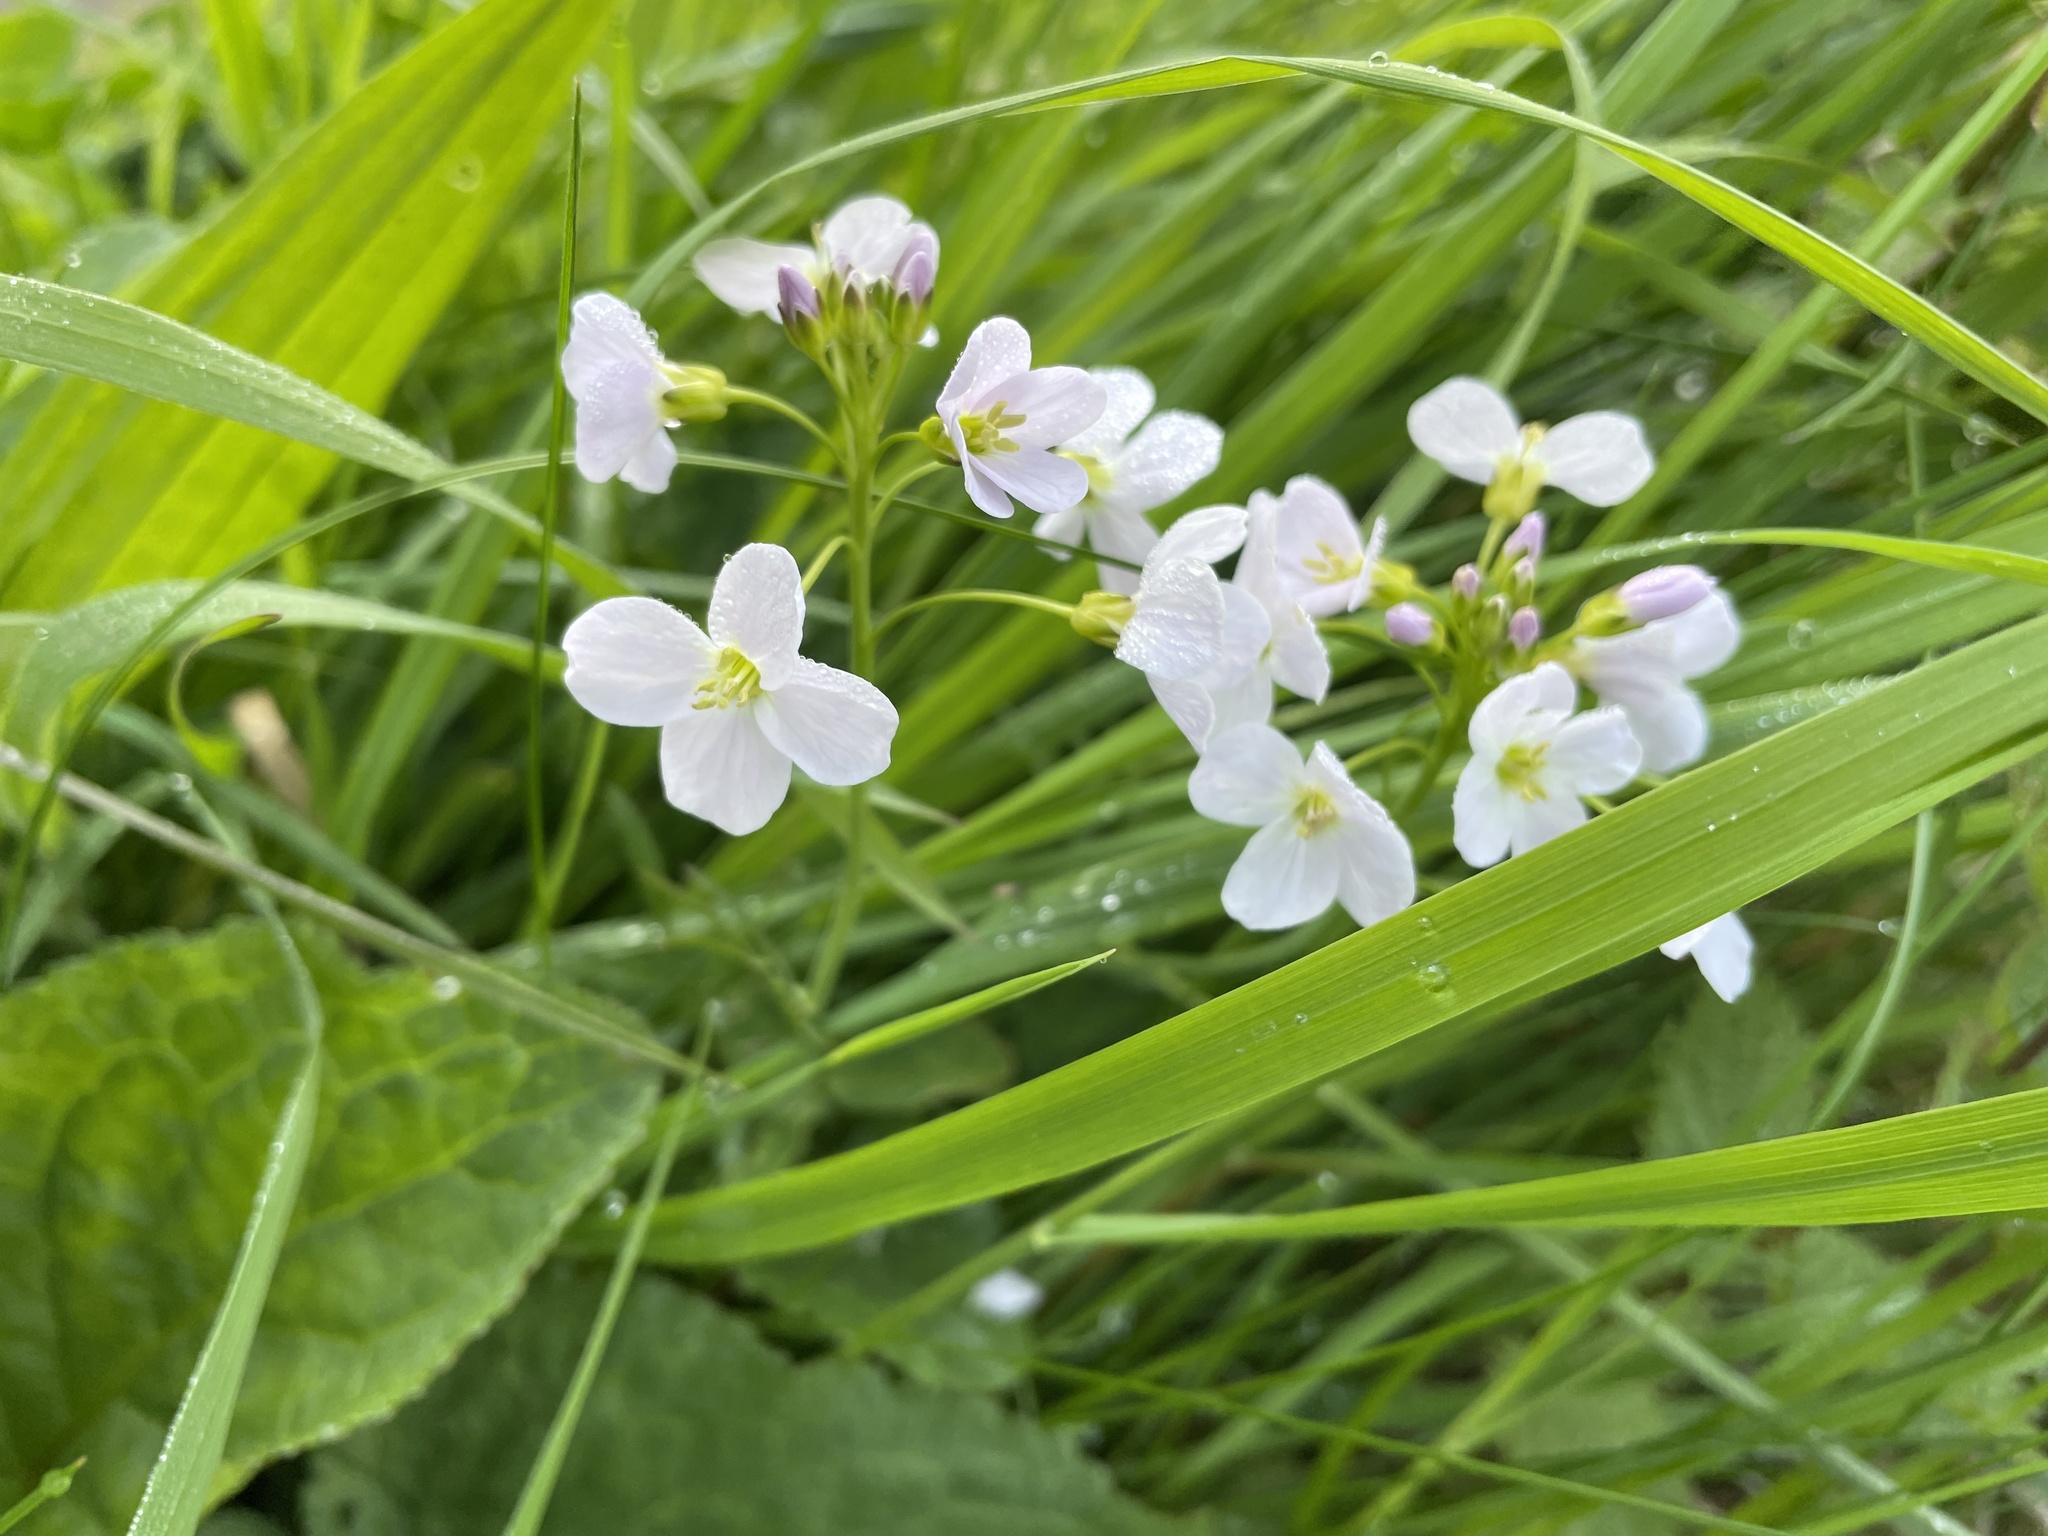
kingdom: Plantae
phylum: Tracheophyta
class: Magnoliopsida
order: Brassicales
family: Brassicaceae
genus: Cardamine
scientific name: Cardamine pratensis
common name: Cuckoo flower
